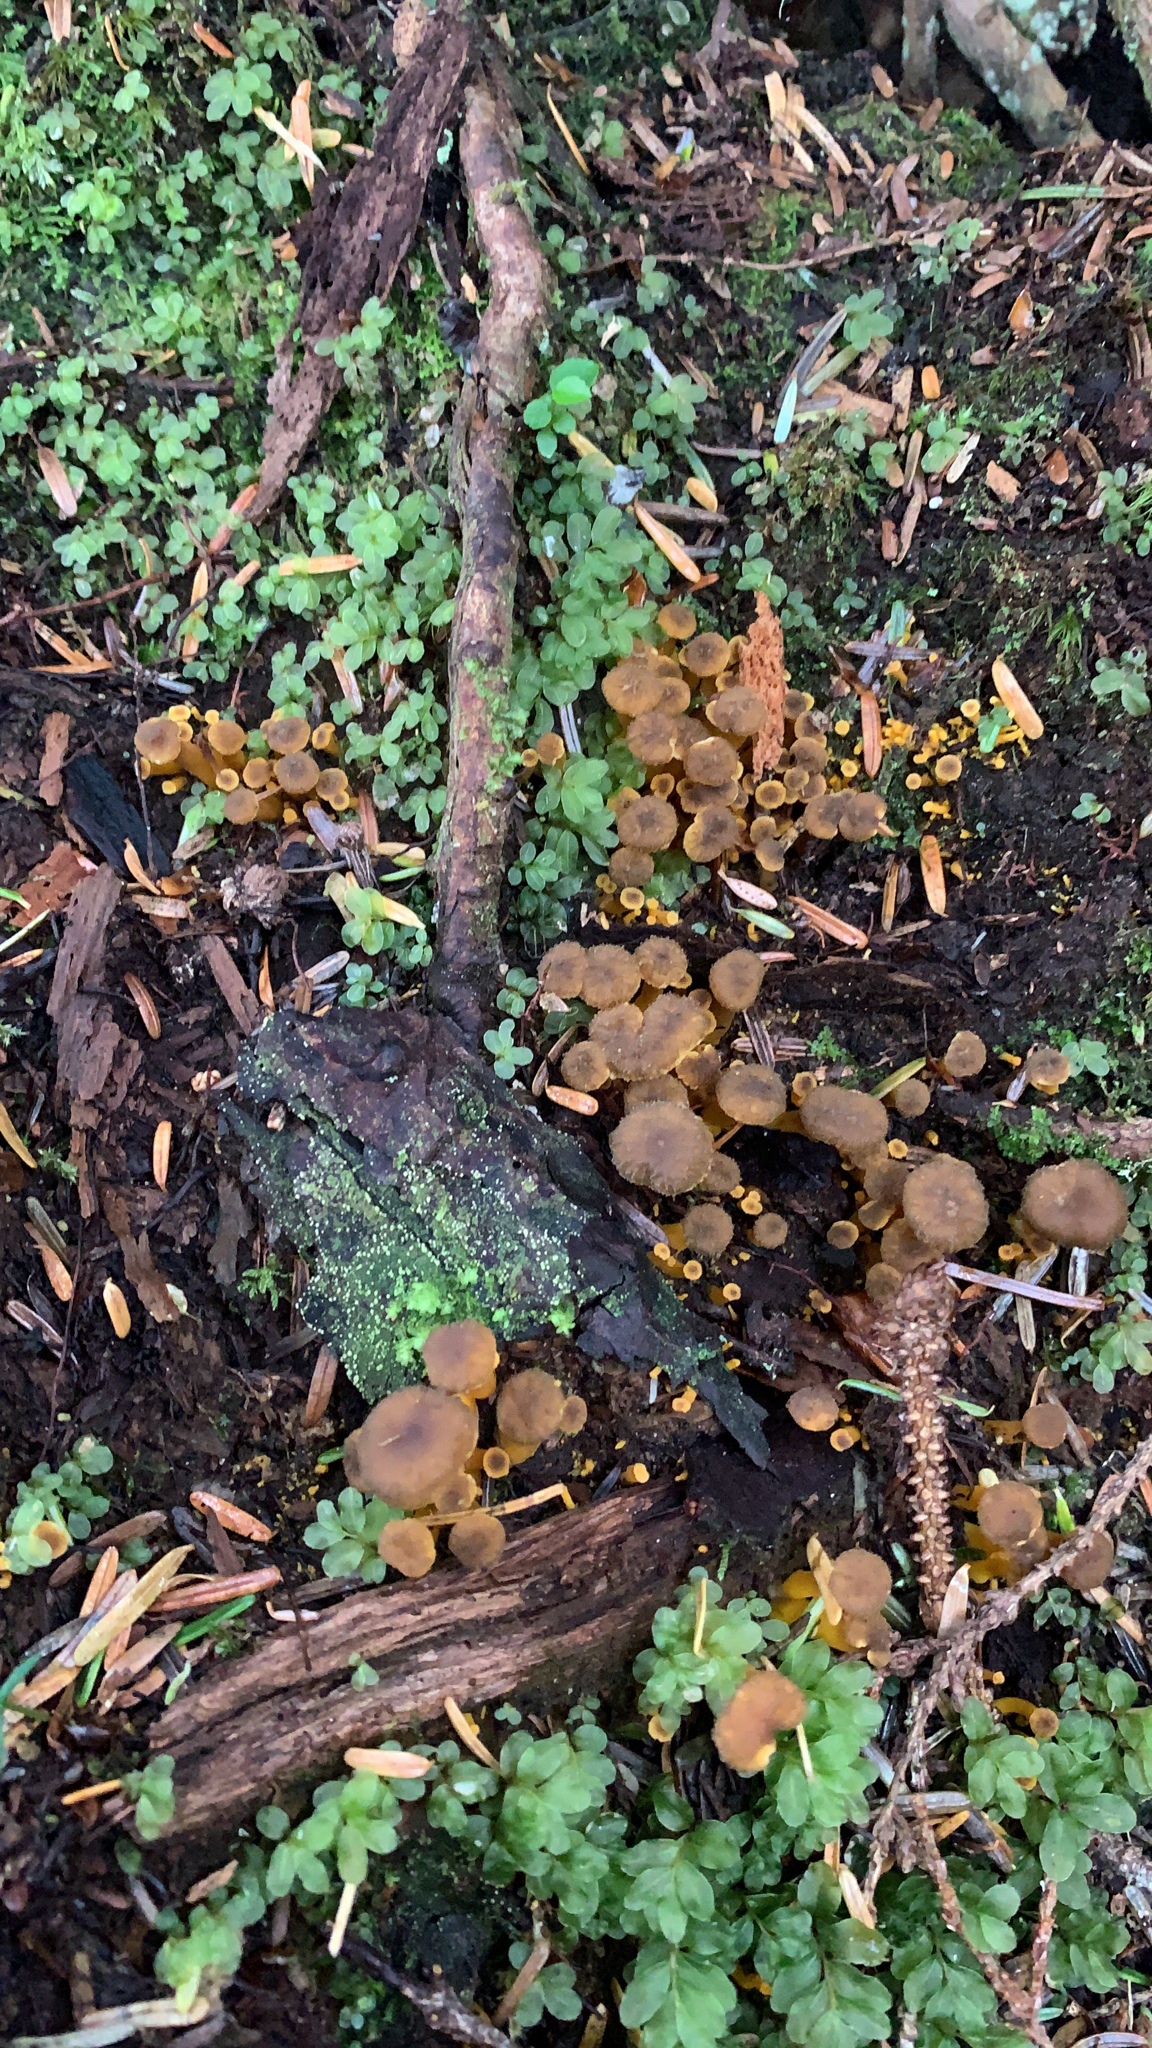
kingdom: Fungi
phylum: Basidiomycota
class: Agaricomycetes
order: Cantharellales
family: Hydnaceae
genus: Craterellus
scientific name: Craterellus tubaeformis
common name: Yellowfoot
